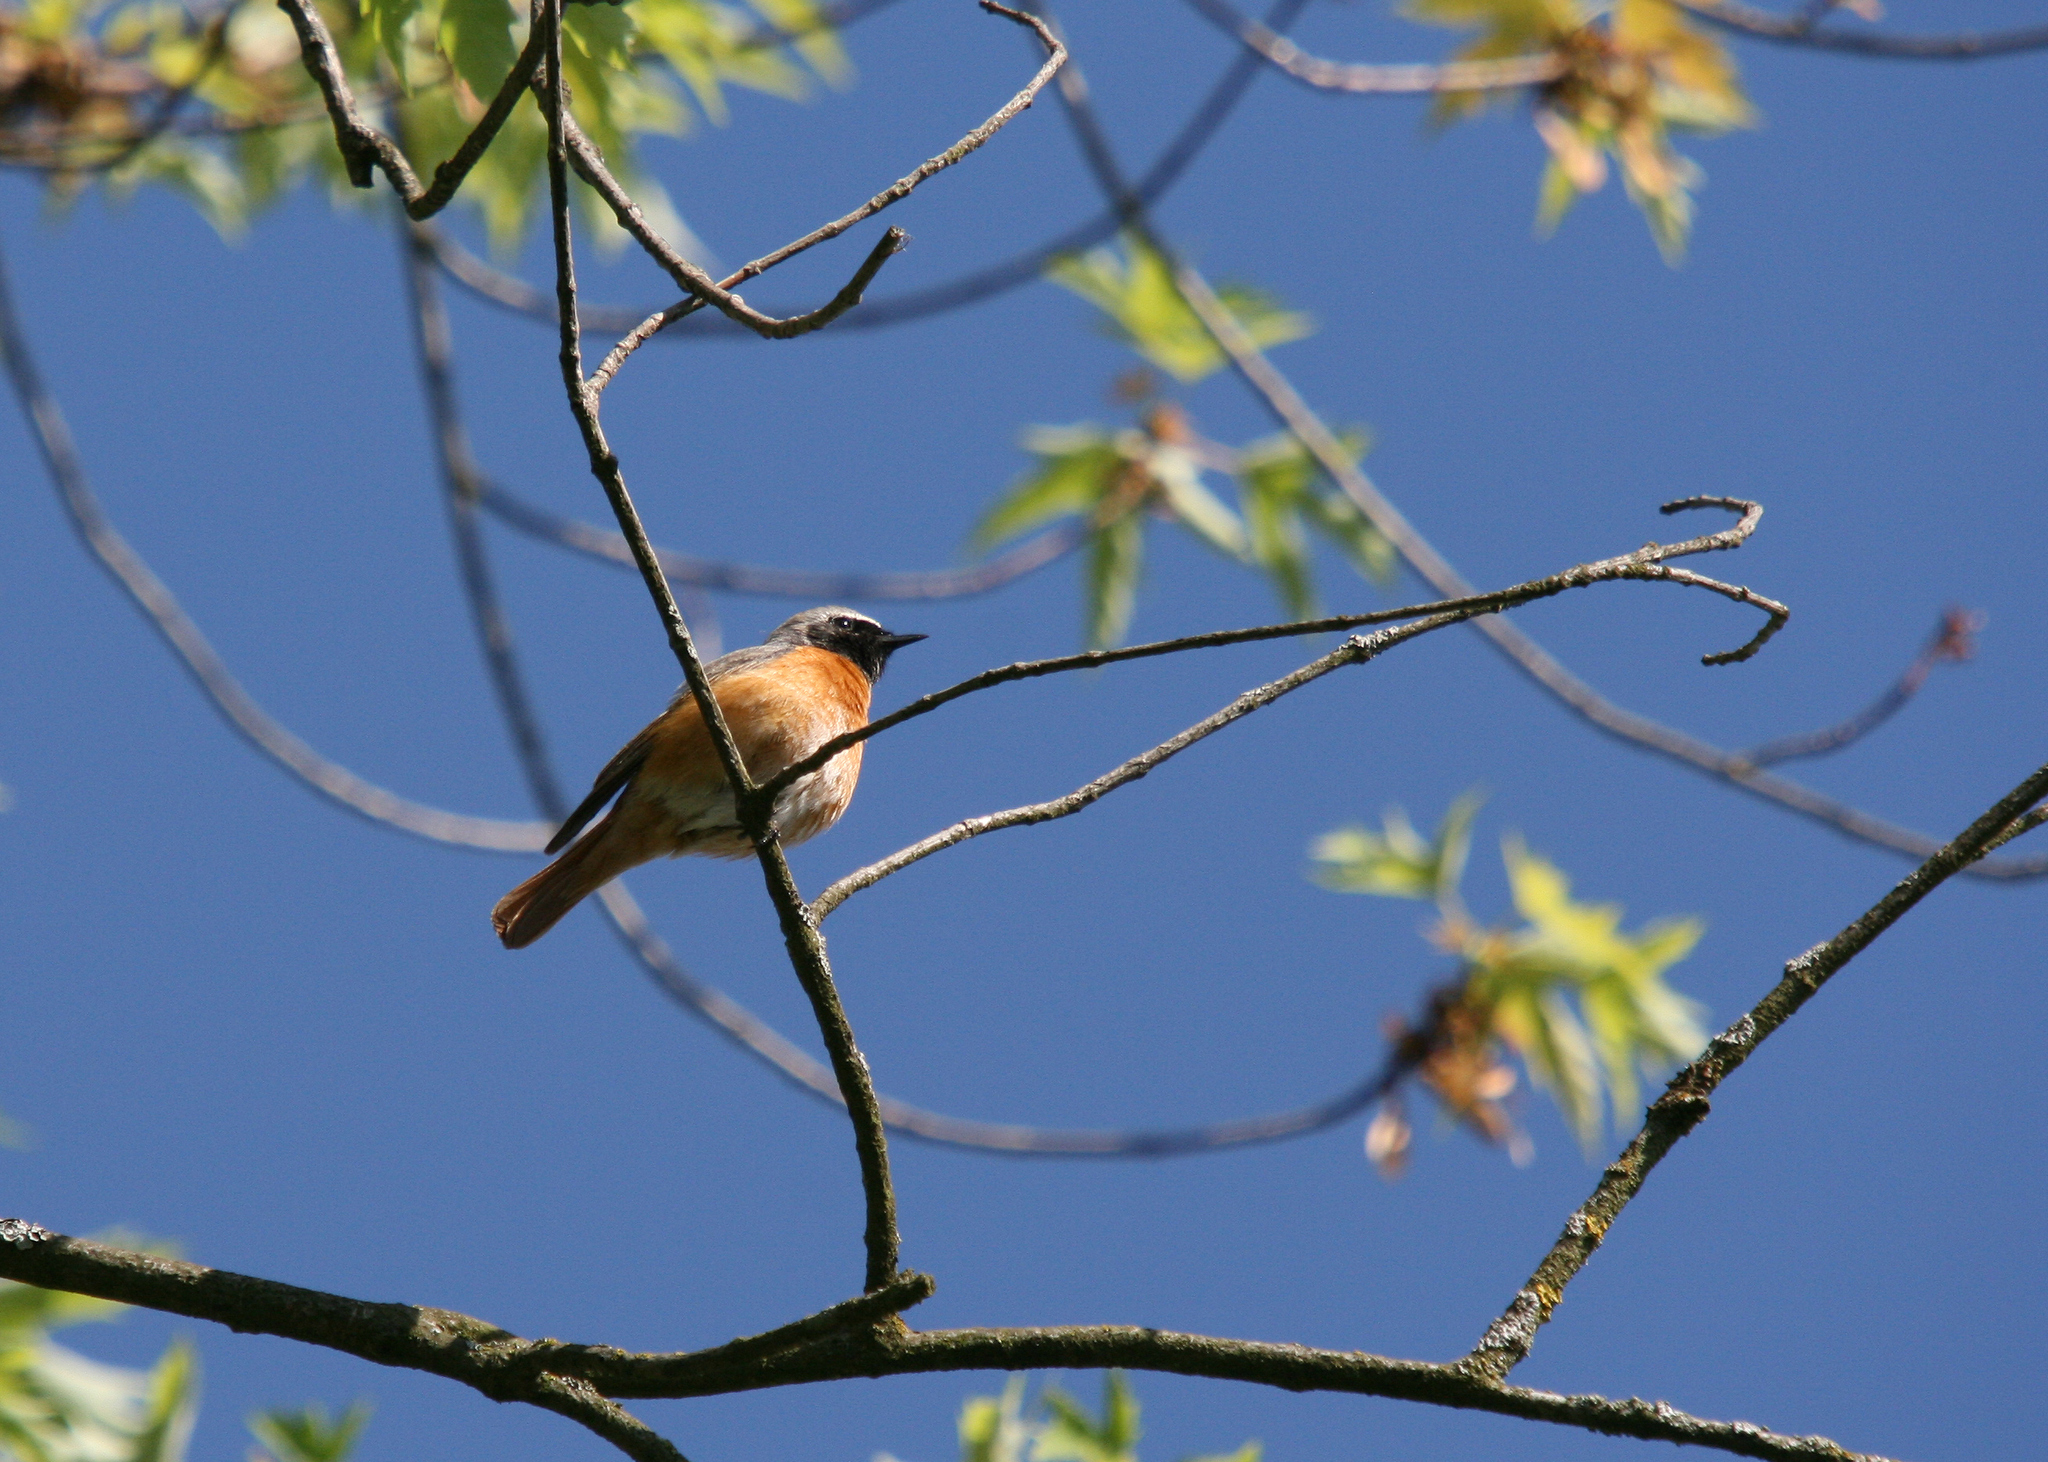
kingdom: Animalia
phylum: Chordata
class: Aves
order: Passeriformes
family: Muscicapidae
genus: Phoenicurus
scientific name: Phoenicurus phoenicurus
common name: Common redstart
